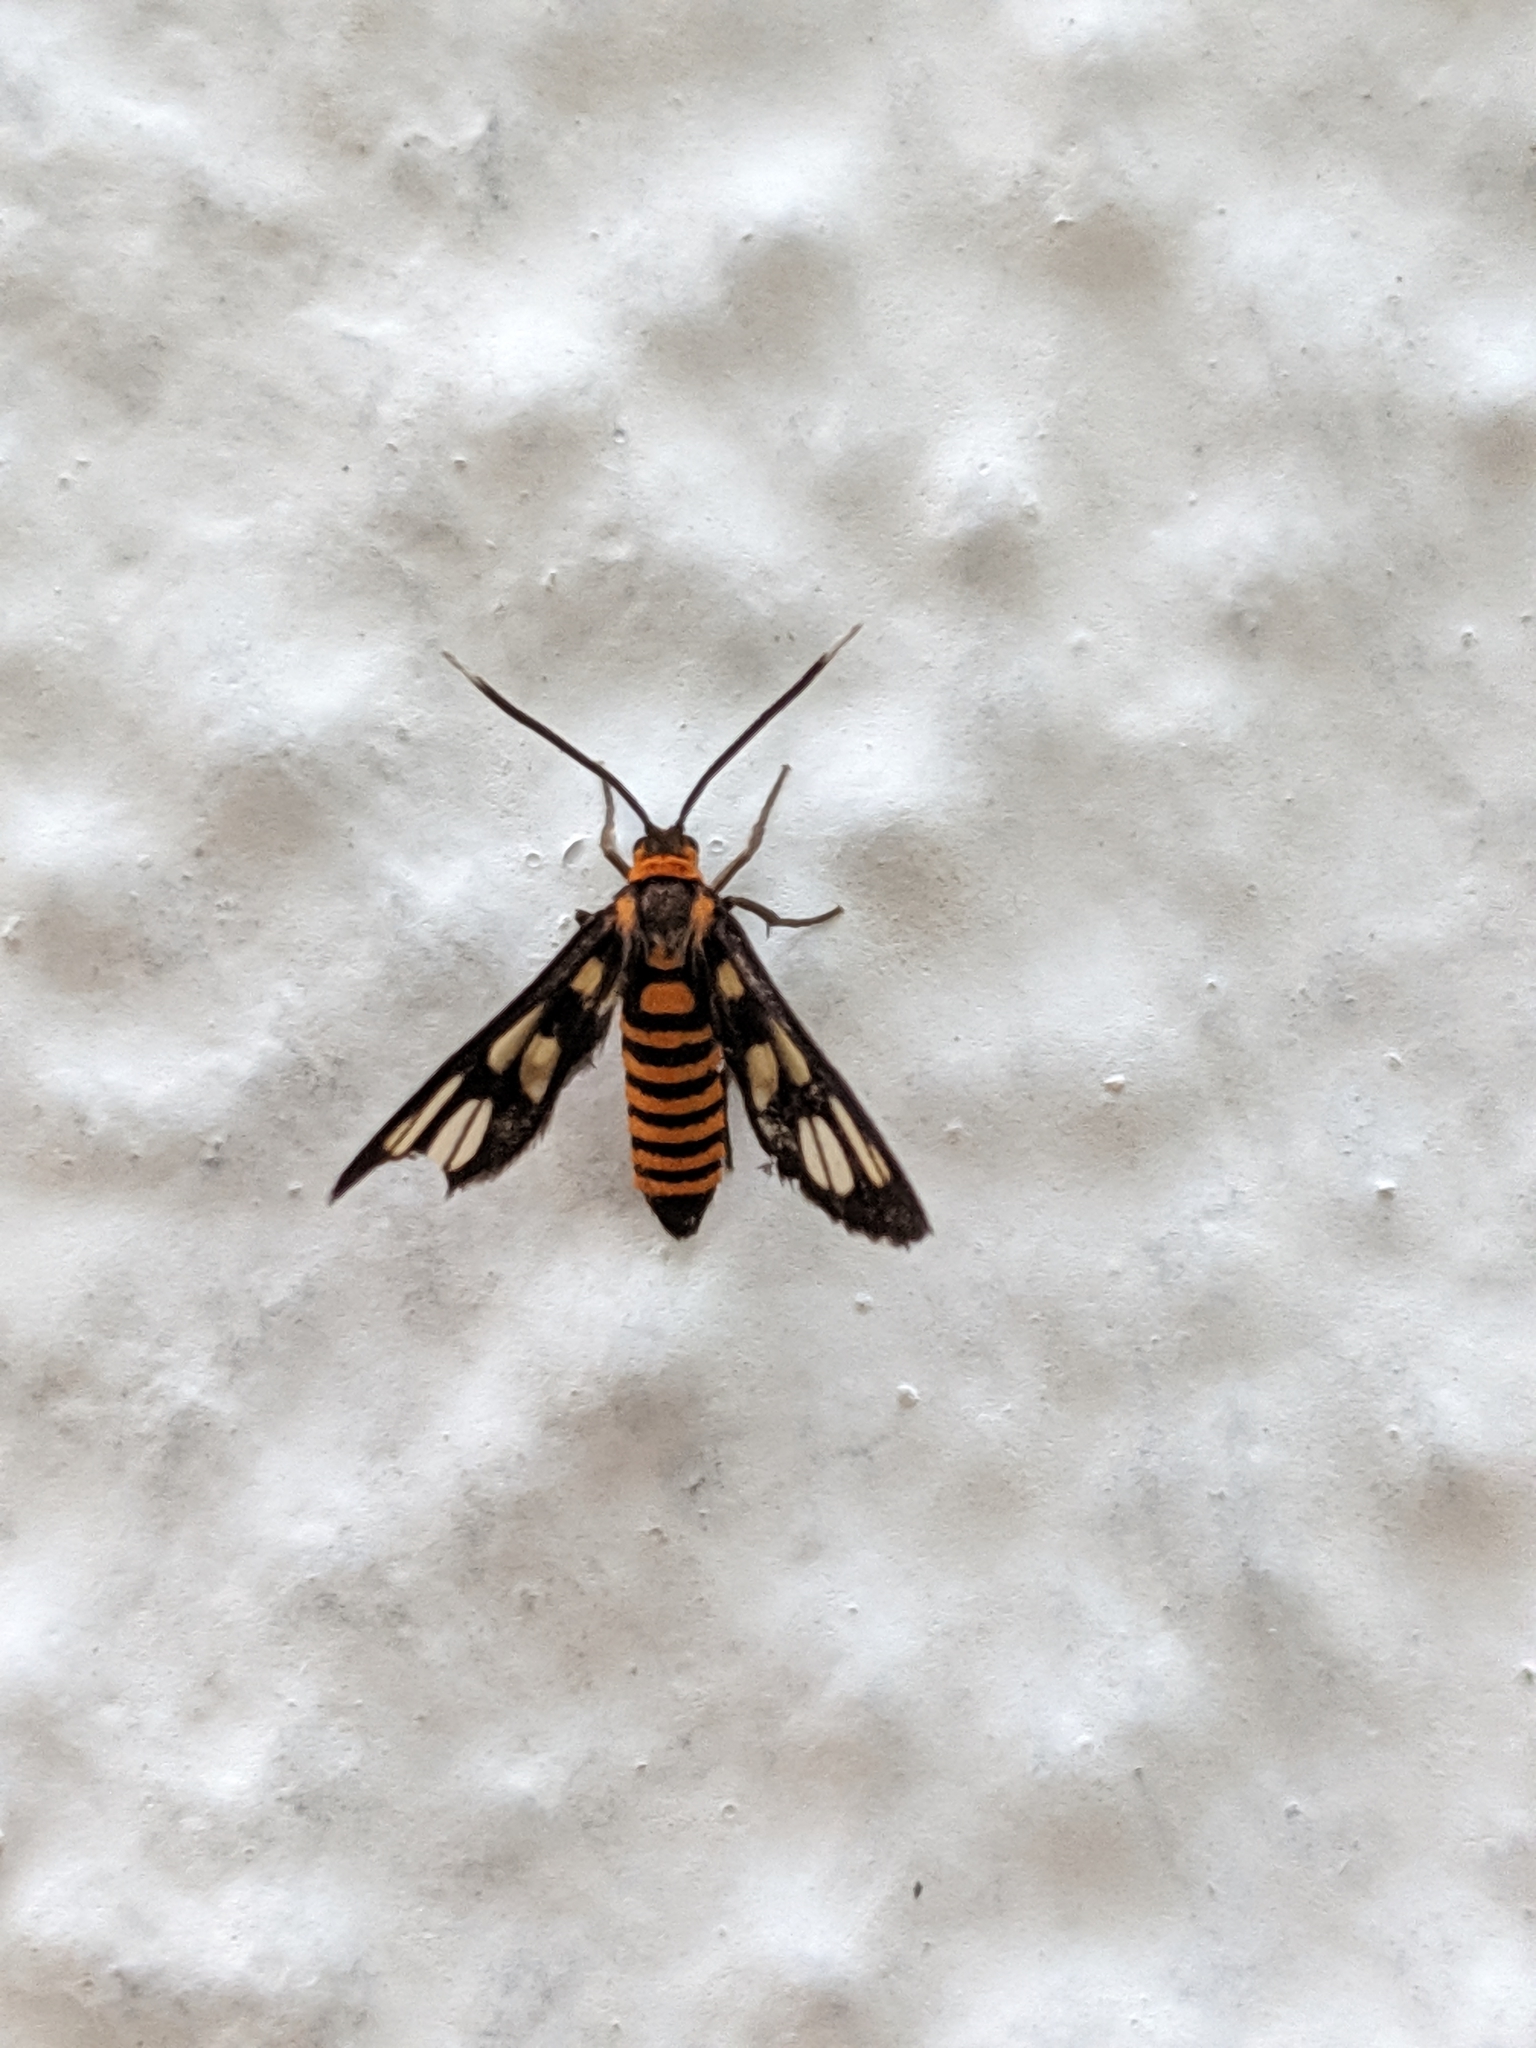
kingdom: Animalia
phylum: Arthropoda
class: Insecta
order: Lepidoptera
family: Erebidae
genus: Amata
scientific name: Amata huebneri
